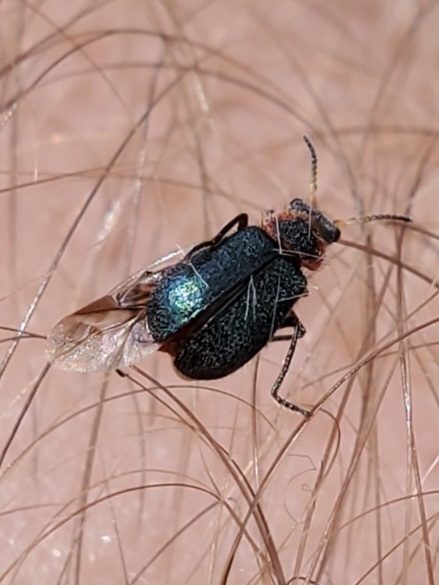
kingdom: Animalia
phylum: Arthropoda
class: Insecta
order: Coleoptera
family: Melyridae
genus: Collops
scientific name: Collops nigriceps
